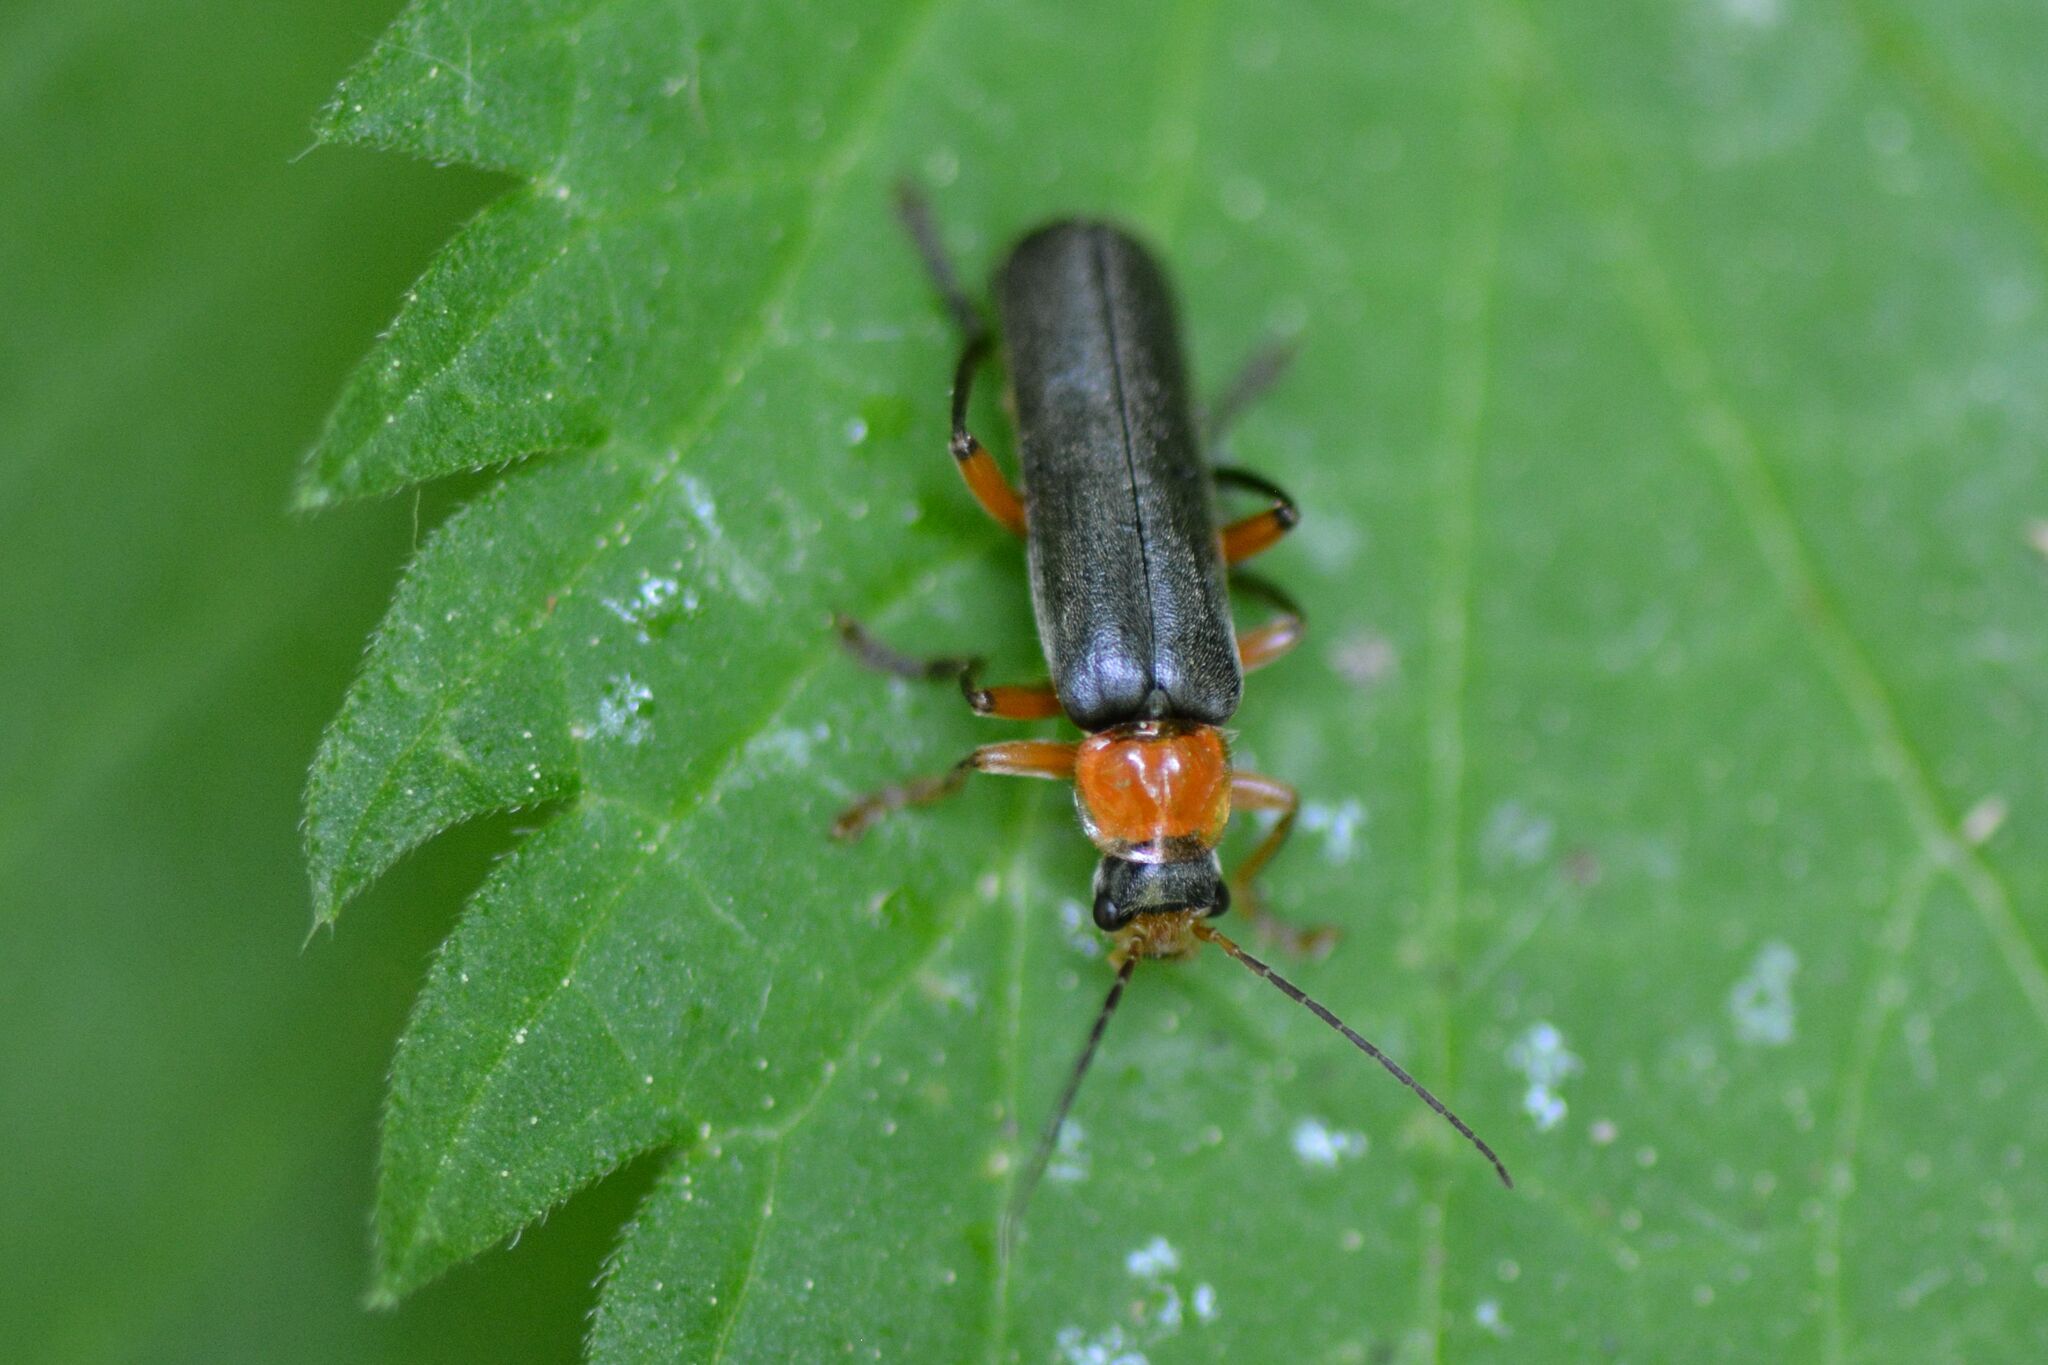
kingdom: Animalia
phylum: Arthropoda
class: Insecta
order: Coleoptera
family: Cantharidae
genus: Cantharis
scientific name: Cantharis pellucida
